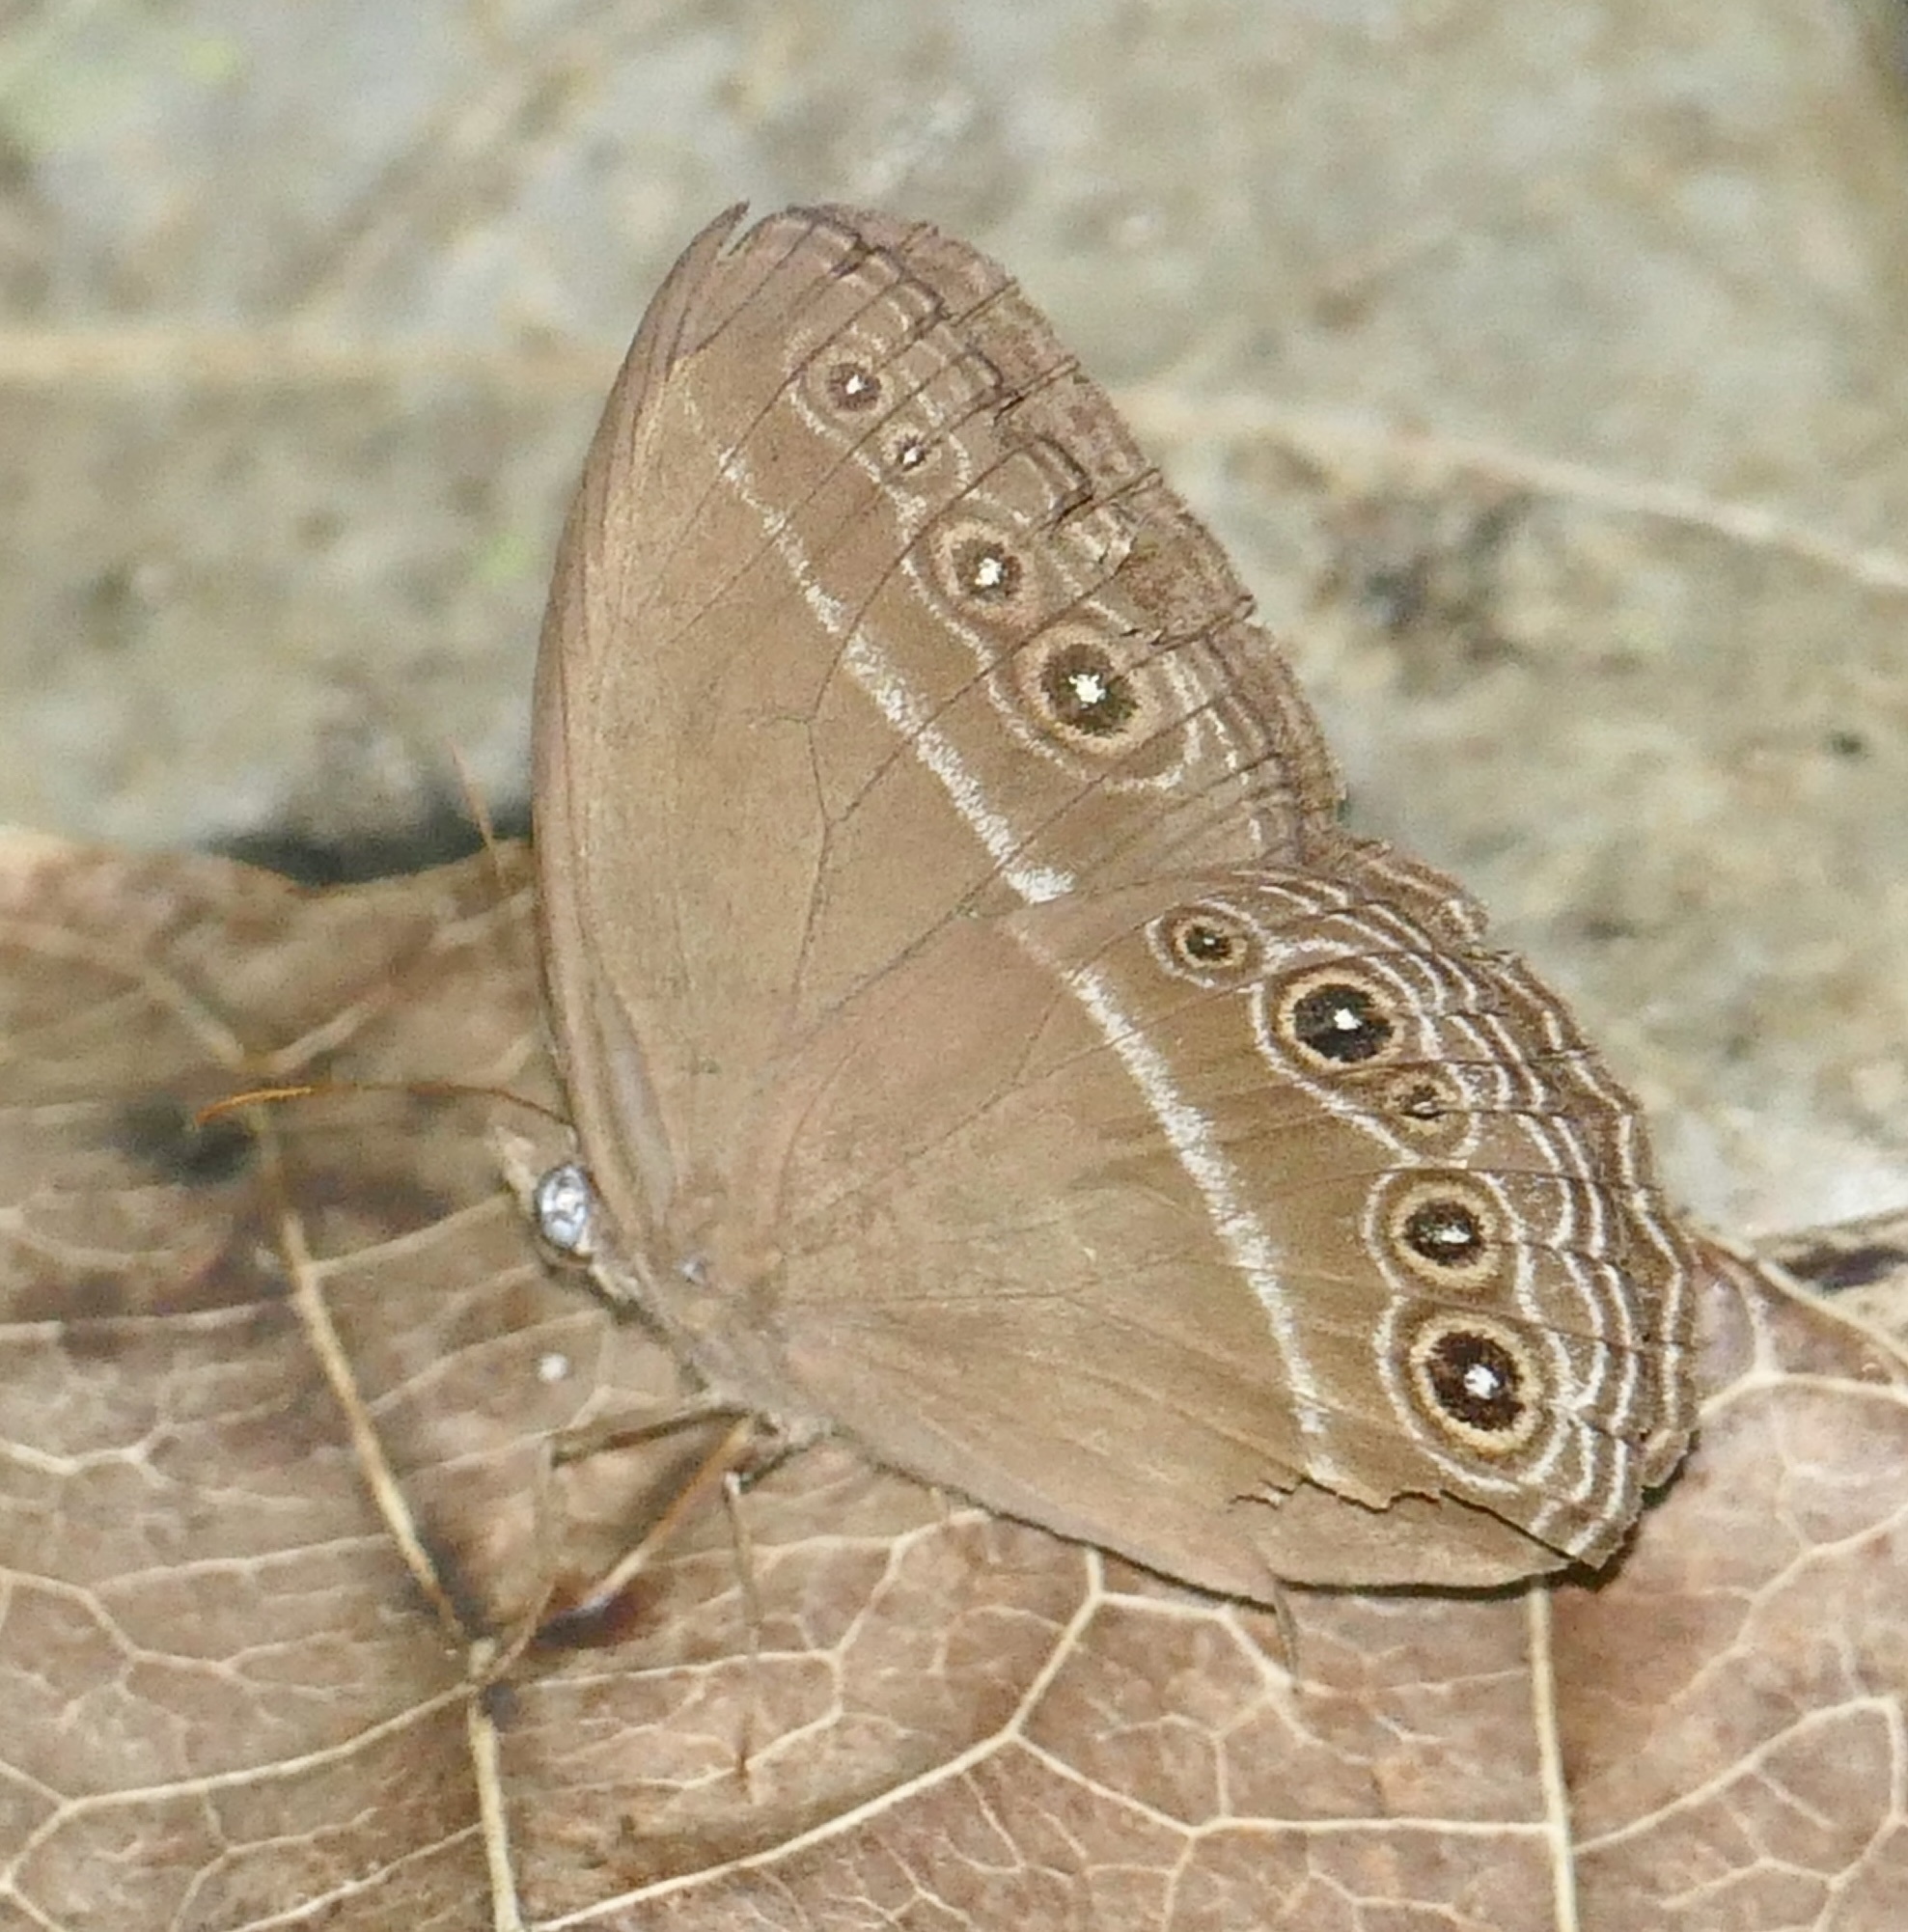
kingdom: Animalia
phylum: Arthropoda
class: Insecta
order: Lepidoptera
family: Nymphalidae
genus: Orsotriaena
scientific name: Orsotriaena jopas
